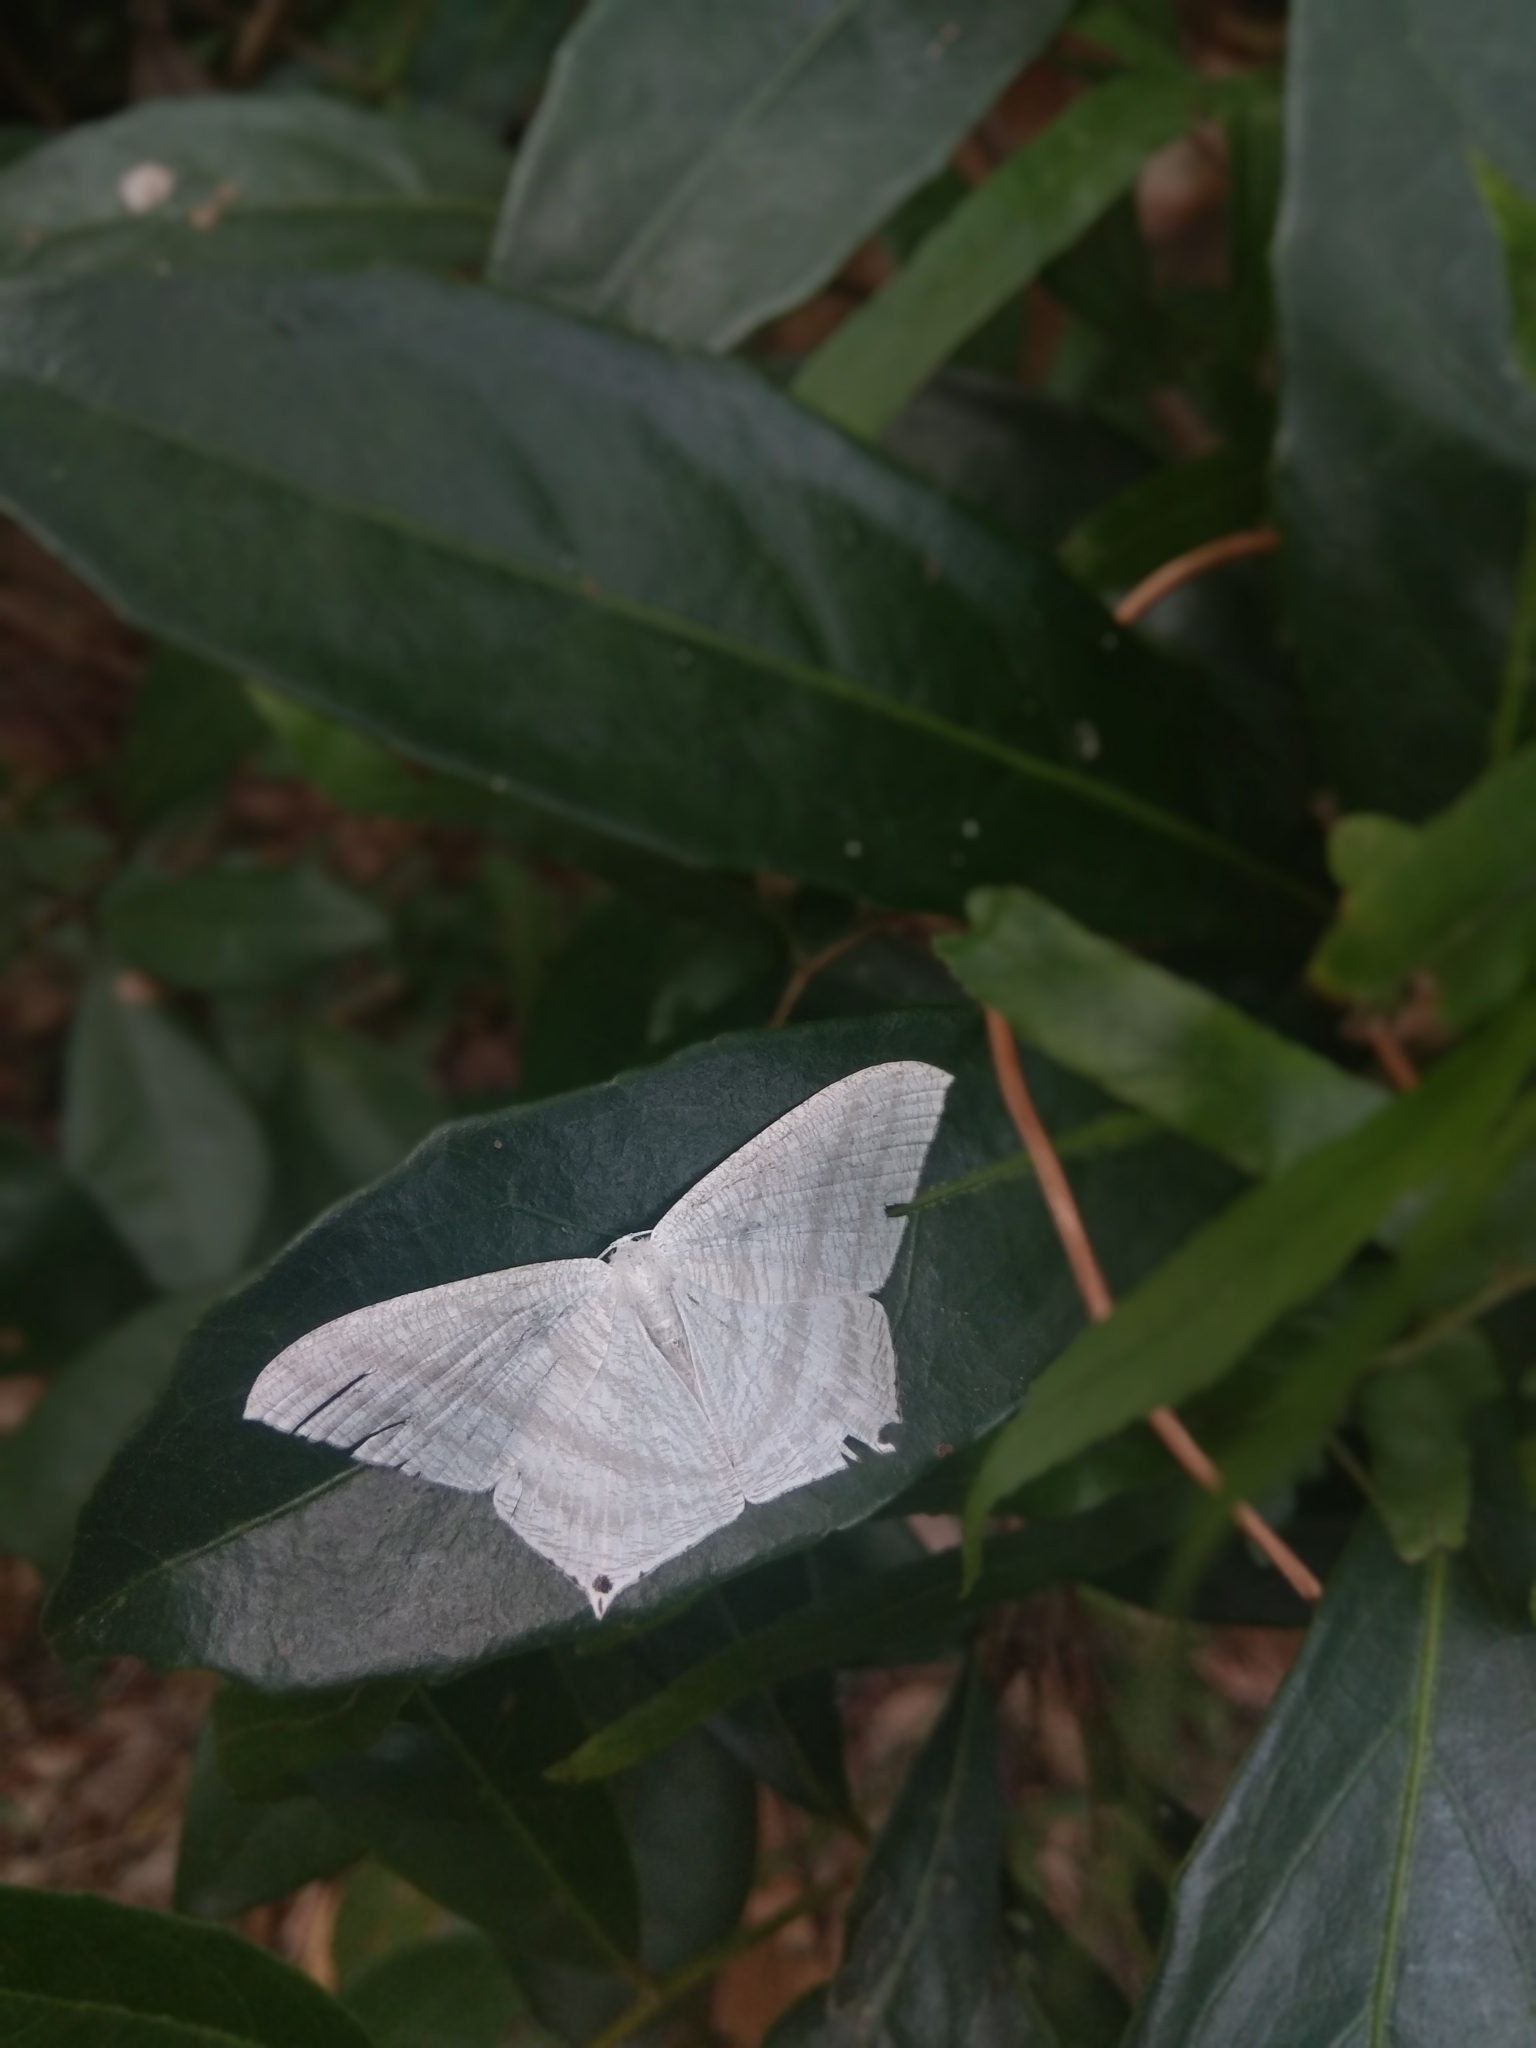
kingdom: Animalia
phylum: Arthropoda
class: Insecta
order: Lepidoptera
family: Uraniidae
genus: Micronia
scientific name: Micronia aculeata
